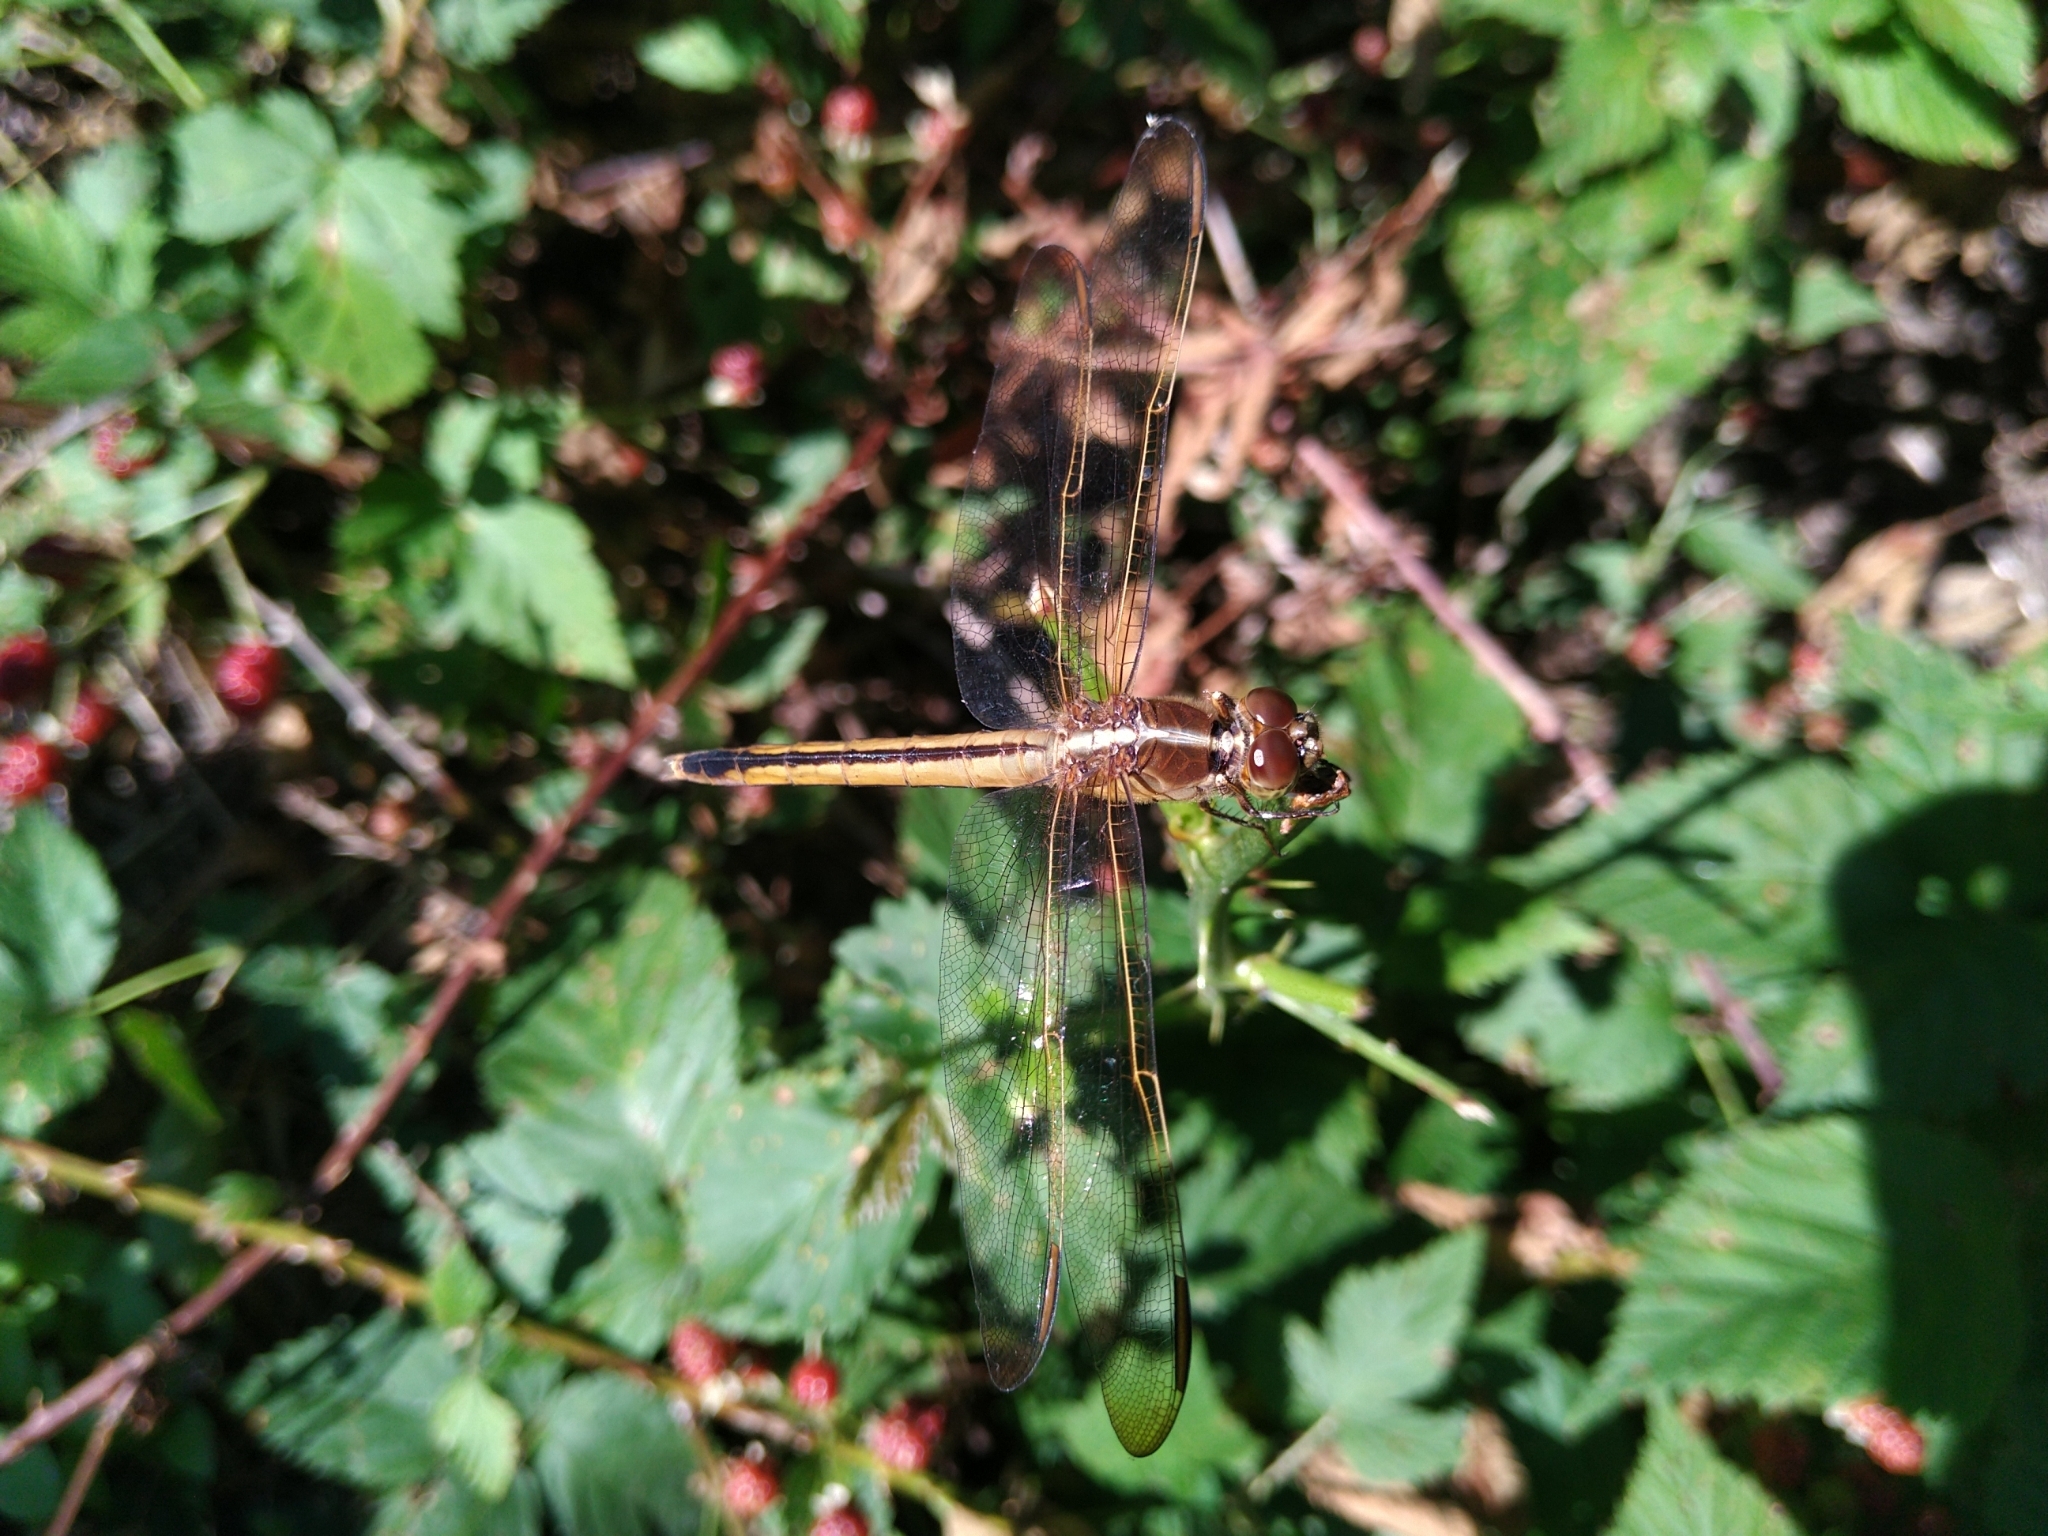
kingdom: Animalia
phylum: Arthropoda
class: Insecta
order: Odonata
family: Libellulidae
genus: Libellula
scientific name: Libellula needhami
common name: Needham's skimmer
